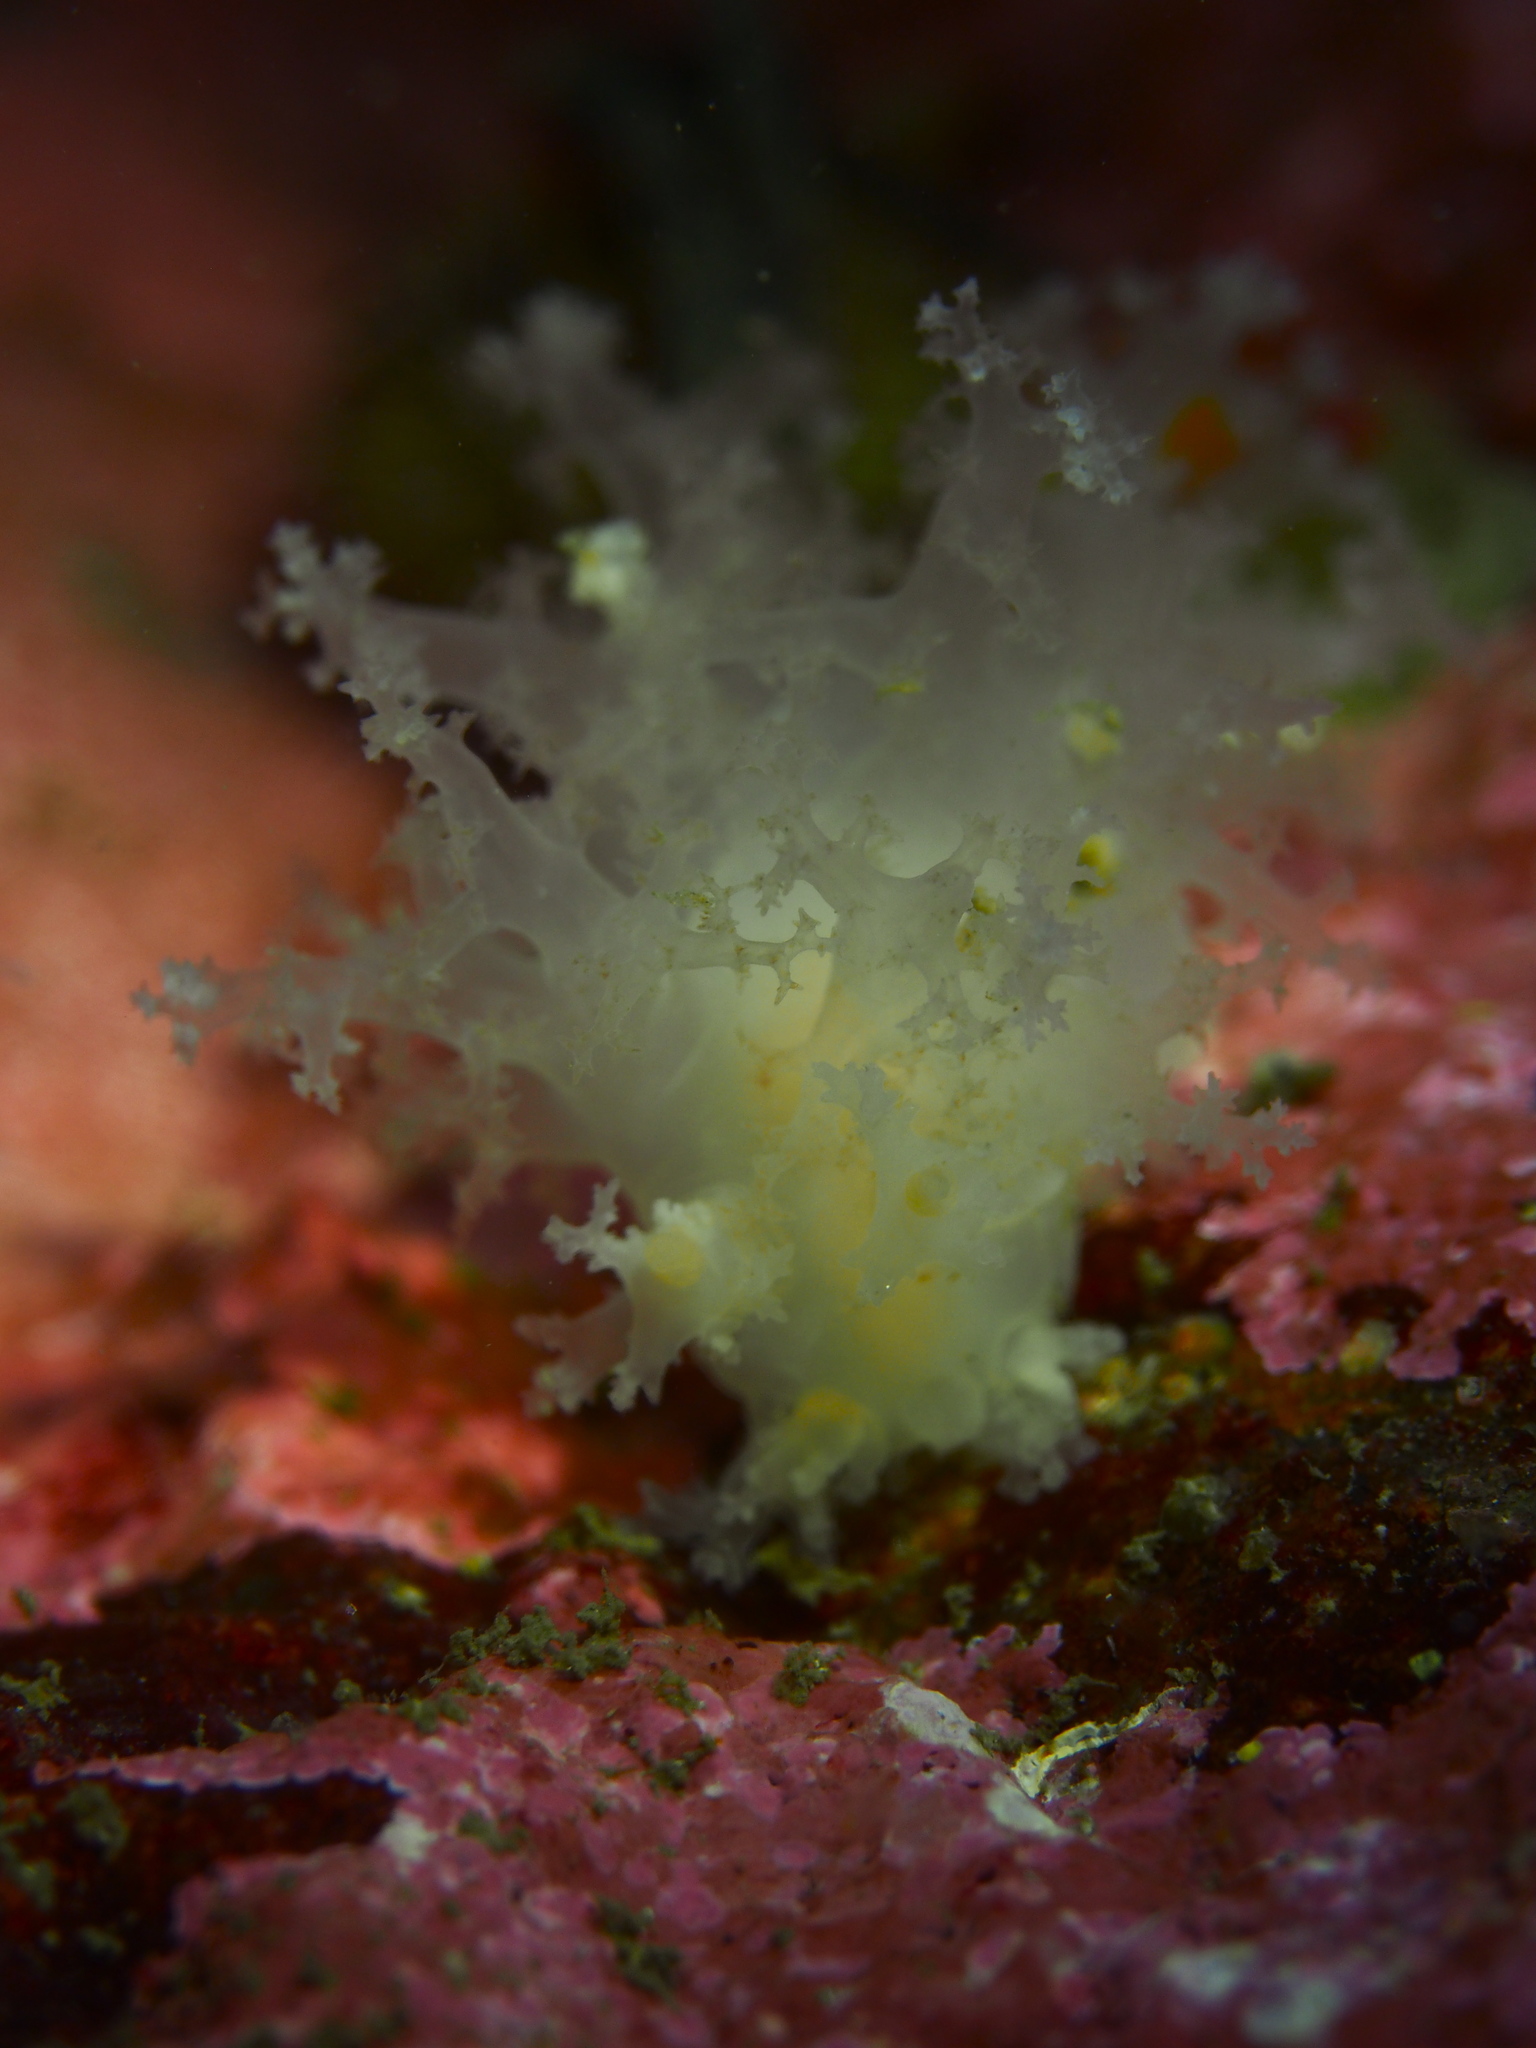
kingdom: Animalia
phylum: Mollusca
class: Gastropoda
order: Nudibranchia
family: Dendronotidae
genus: Dendronotus
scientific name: Dendronotus lacteus
